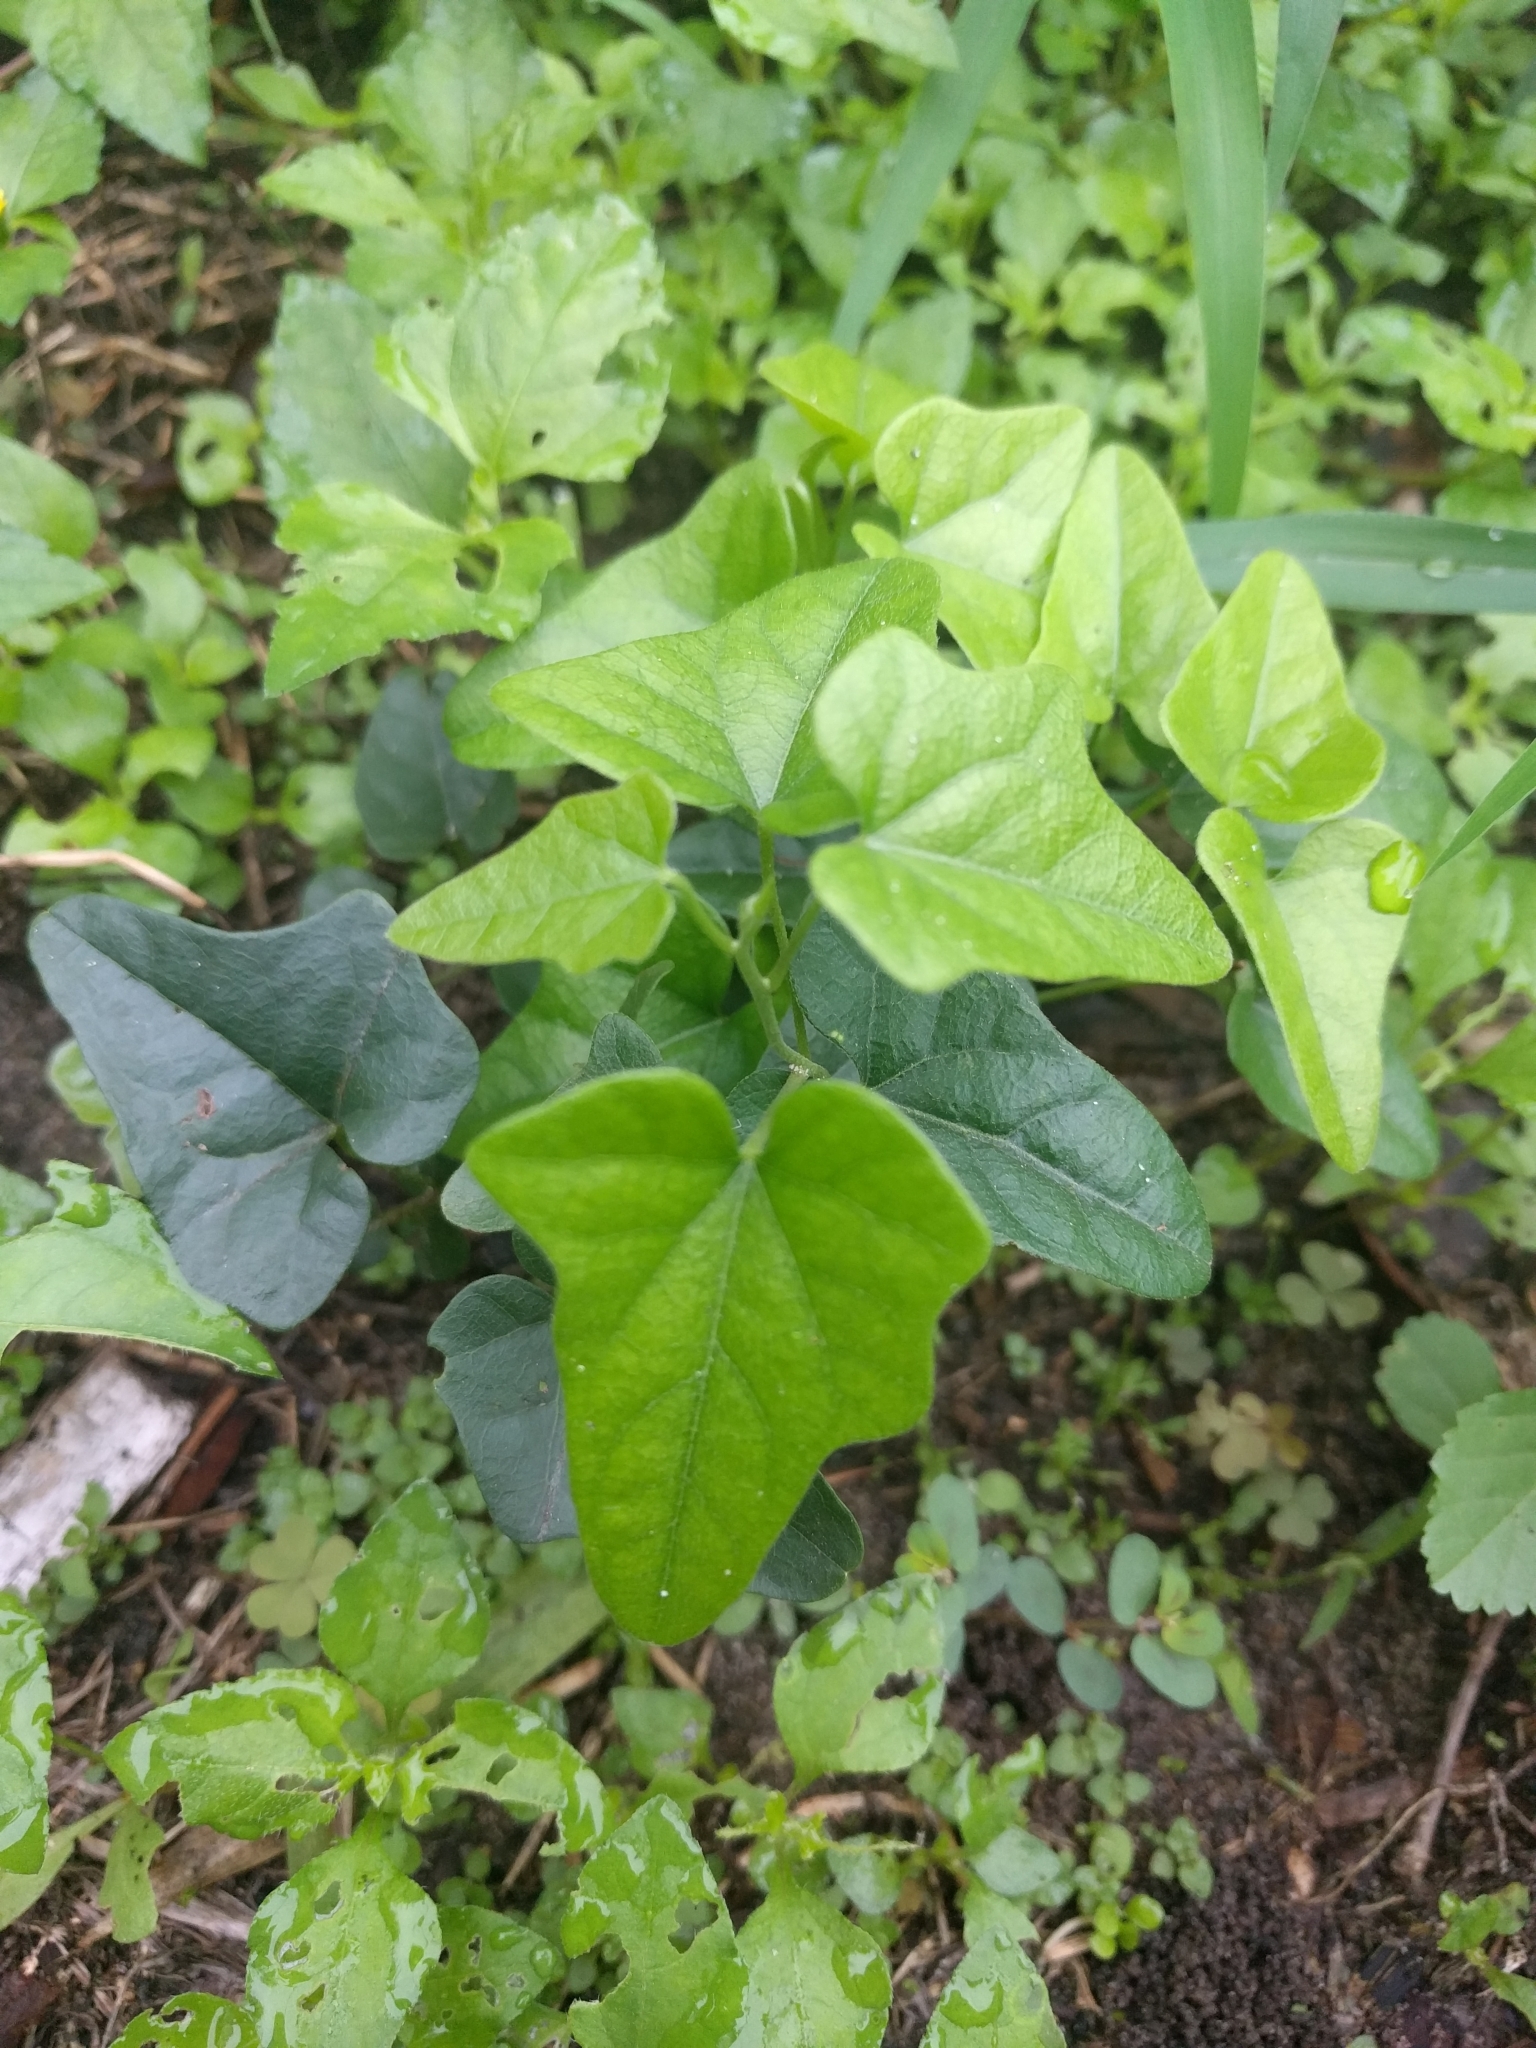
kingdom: Plantae
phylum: Tracheophyta
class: Magnoliopsida
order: Ranunculales
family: Menispermaceae
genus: Cocculus
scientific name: Cocculus carolinus
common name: Carolina moonseed
